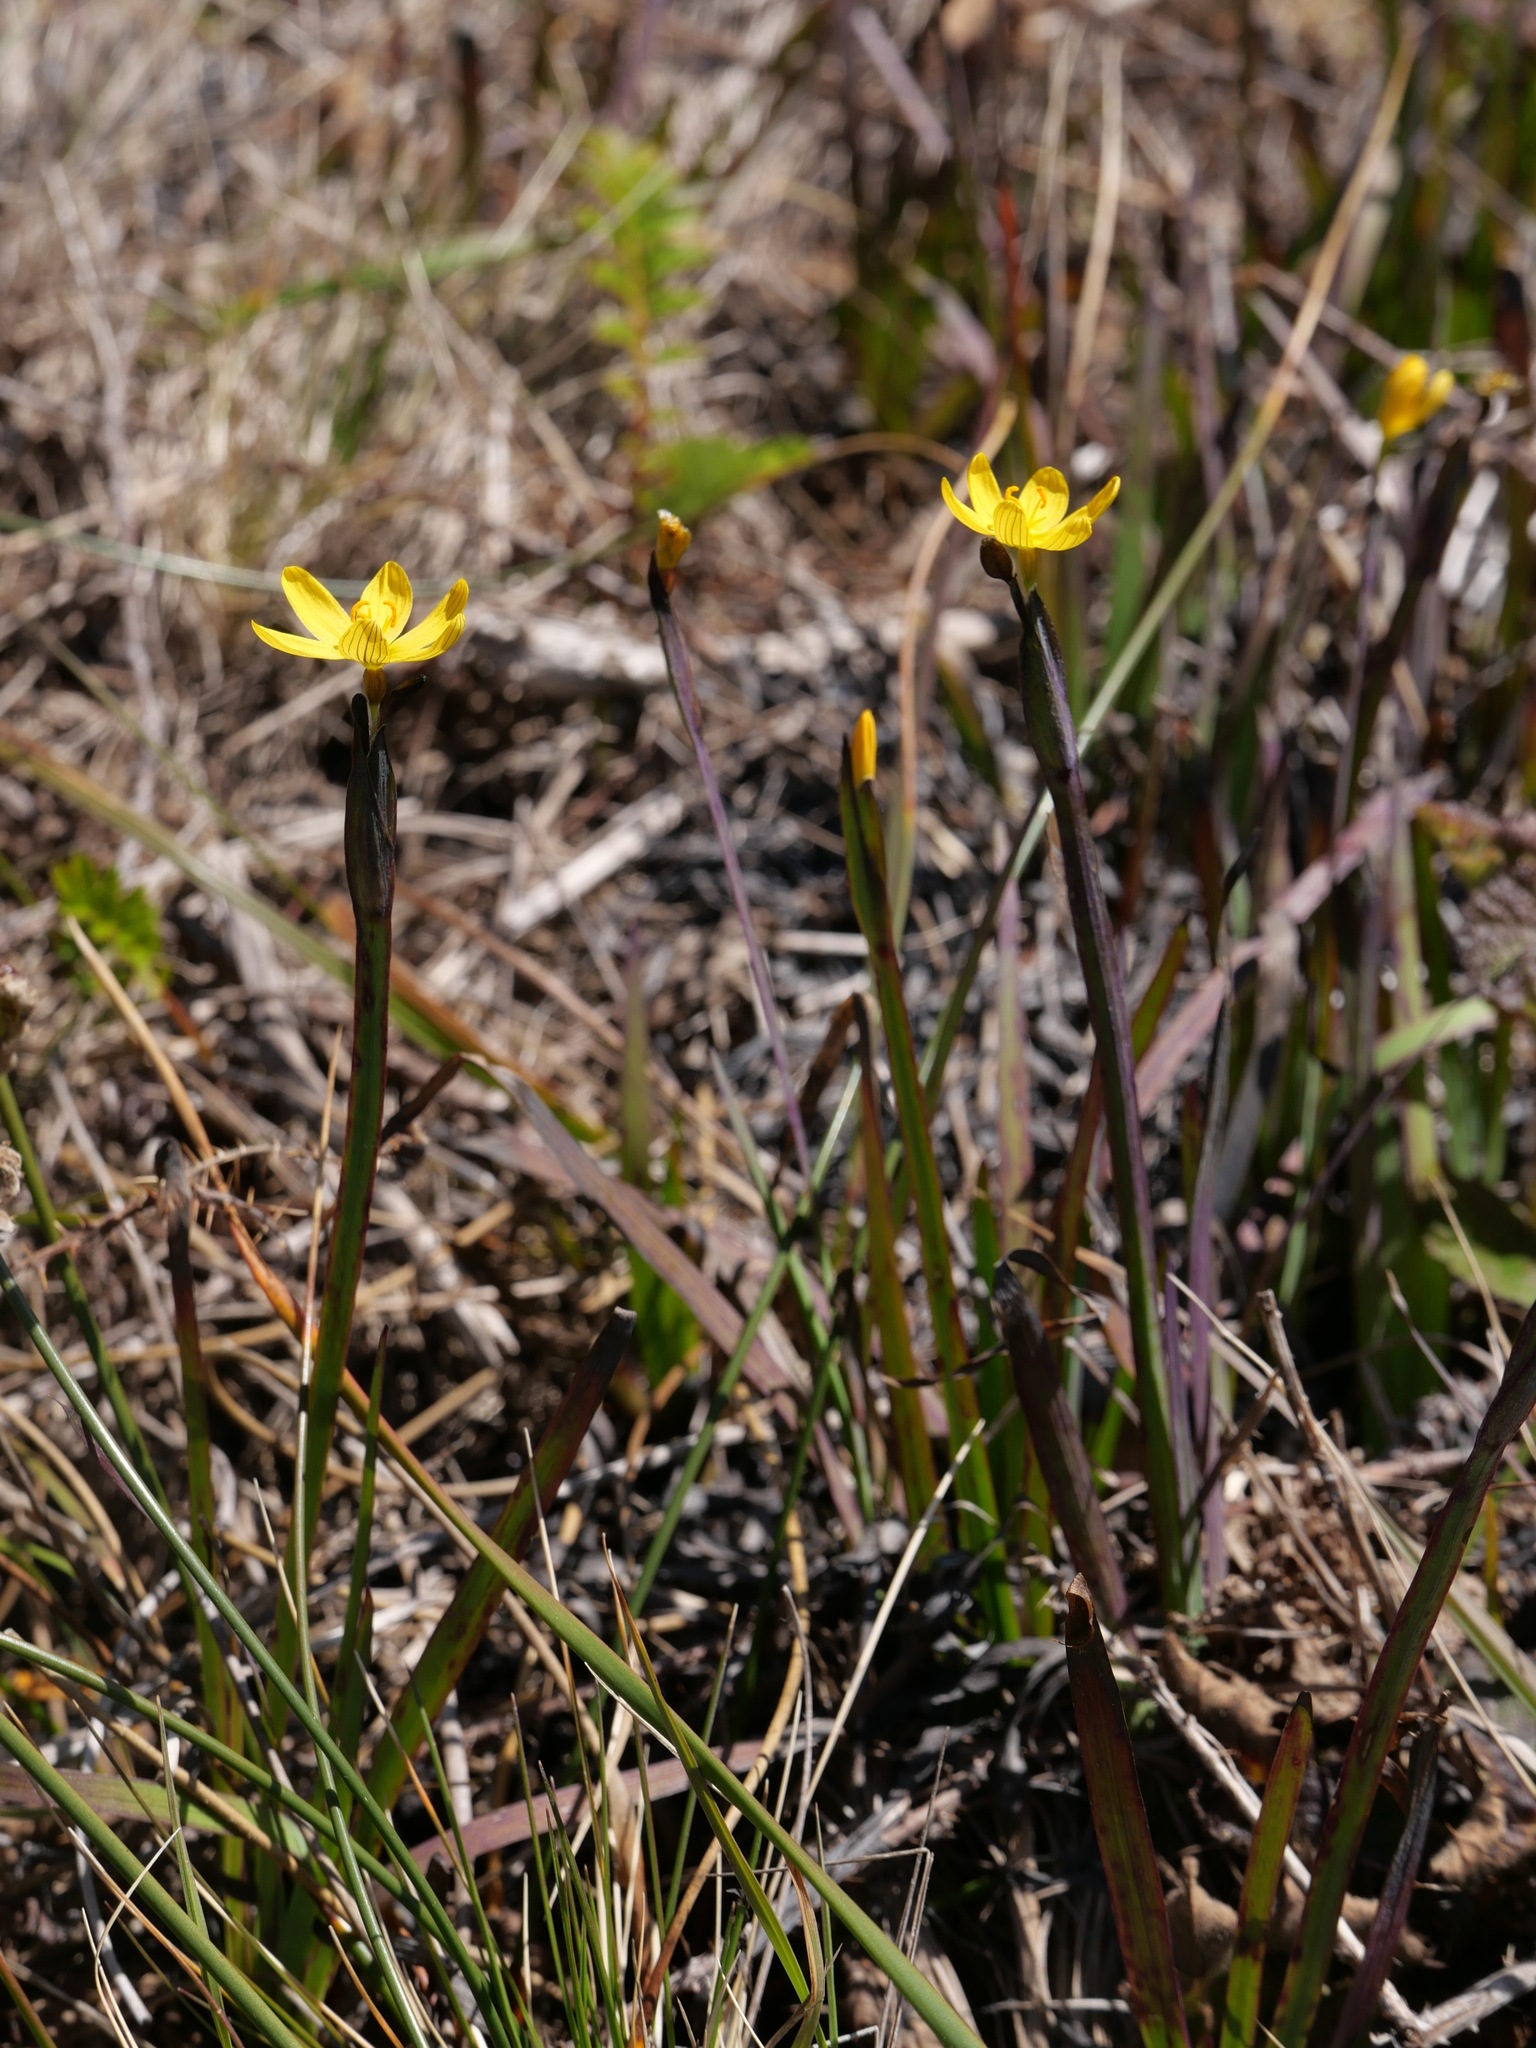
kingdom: Plantae
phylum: Tracheophyta
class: Liliopsida
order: Asparagales
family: Iridaceae
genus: Sisyrinchium
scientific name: Sisyrinchium californicum
